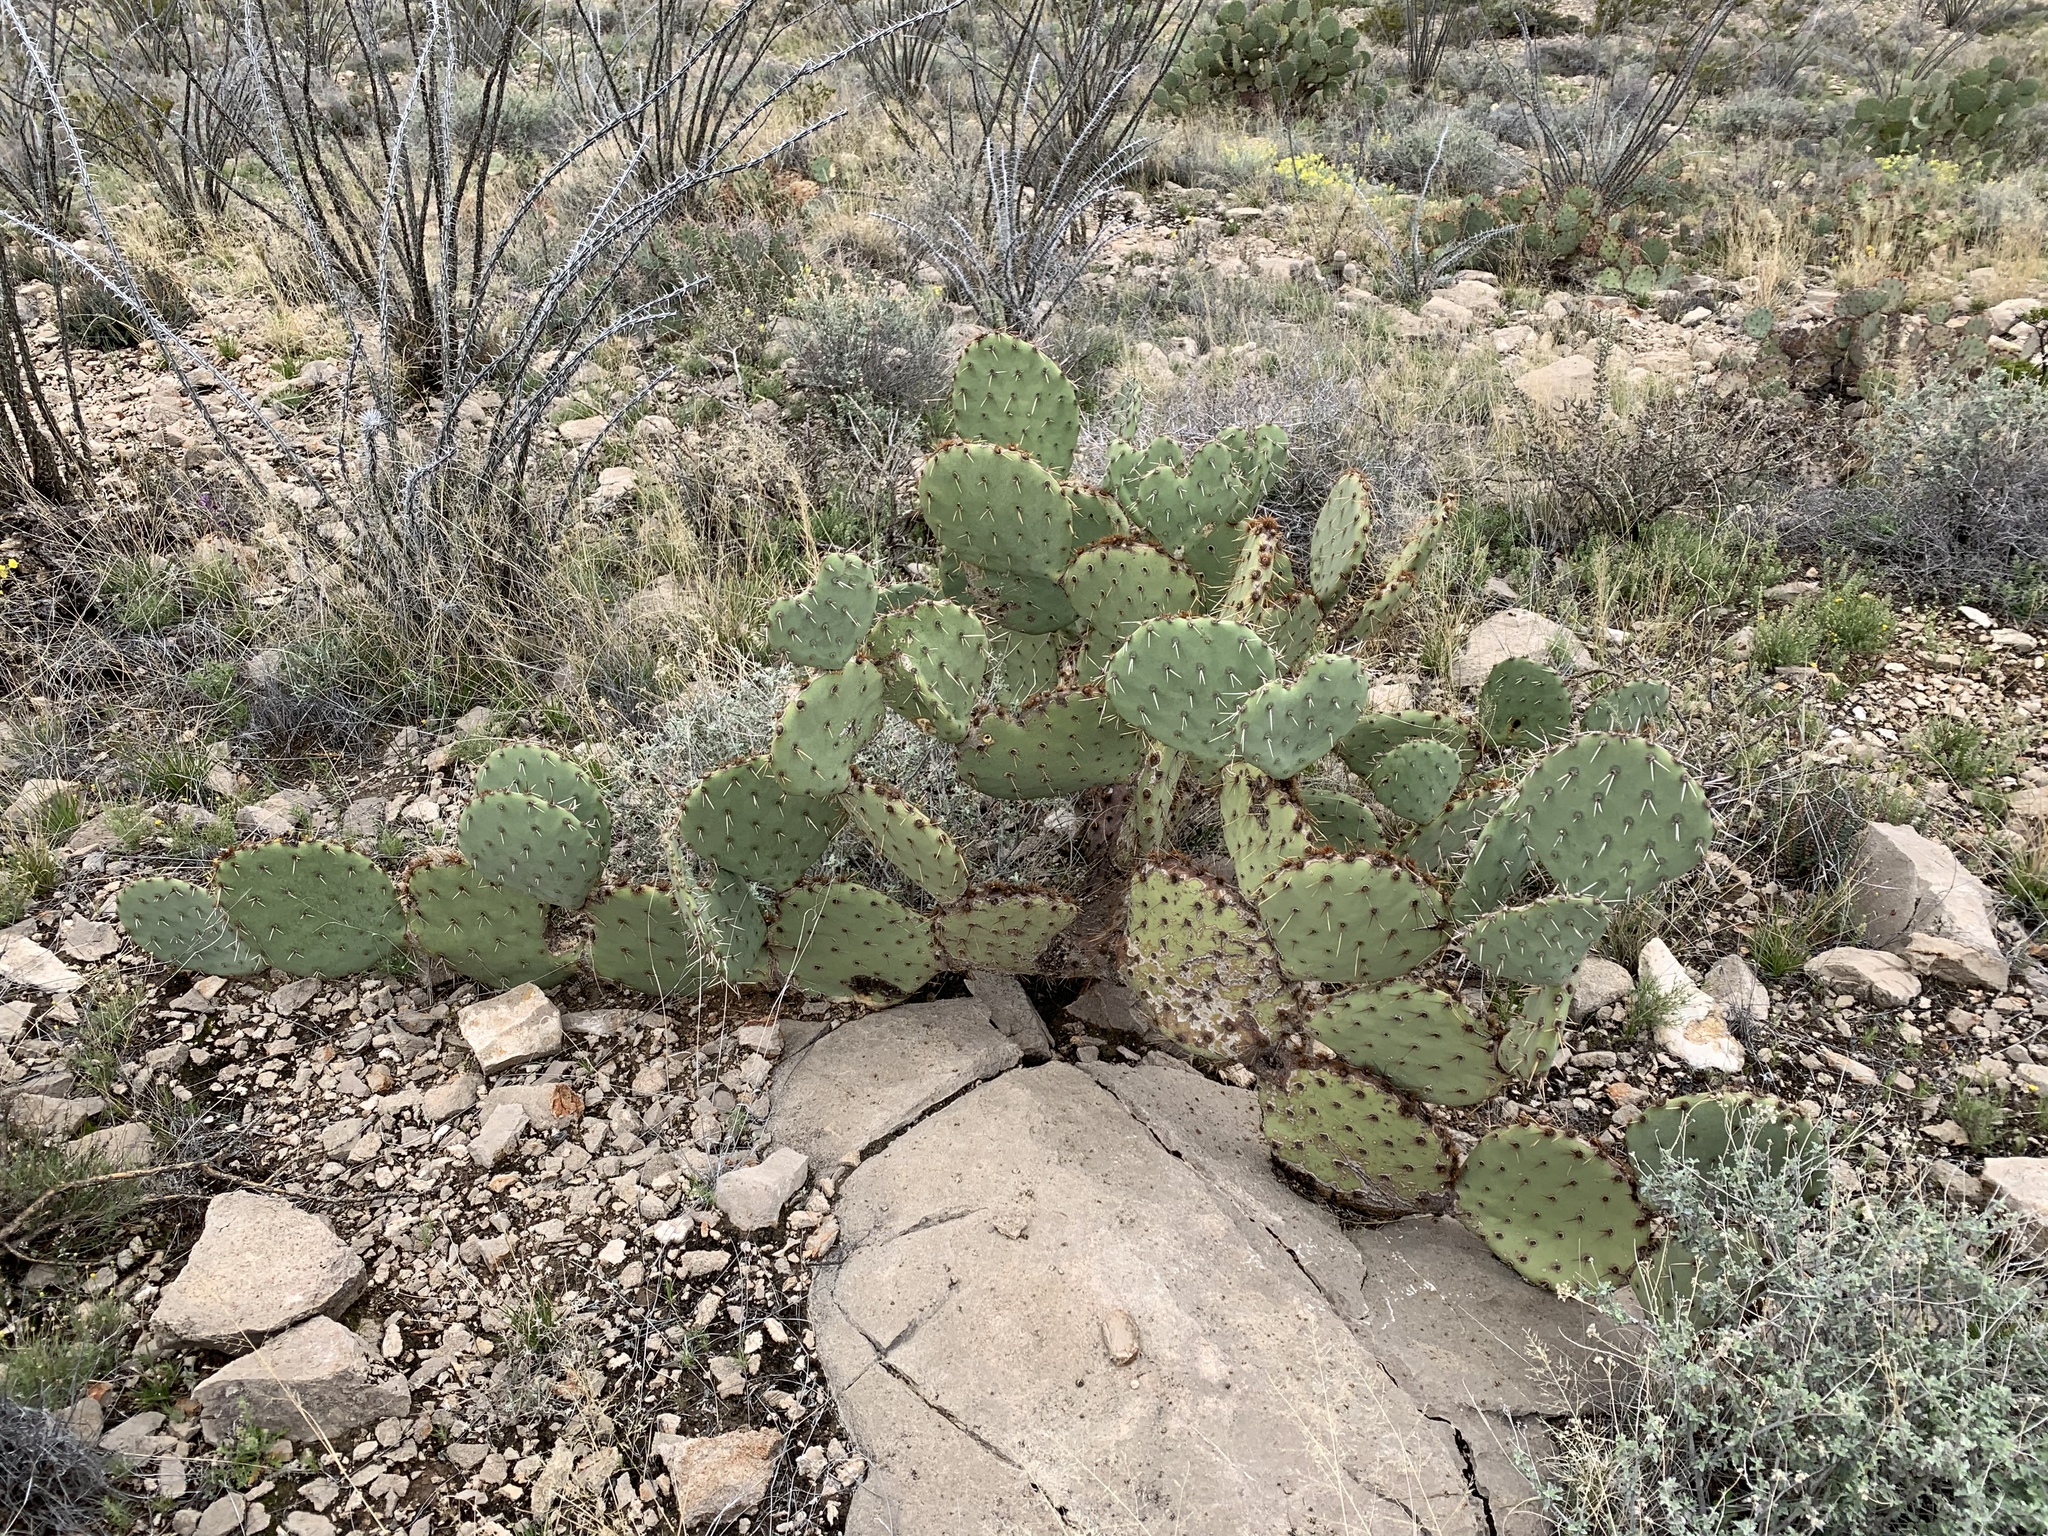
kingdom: Plantae
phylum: Tracheophyta
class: Magnoliopsida
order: Caryophyllales
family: Cactaceae
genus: Opuntia
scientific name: Opuntia engelmannii
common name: Cactus-apple
